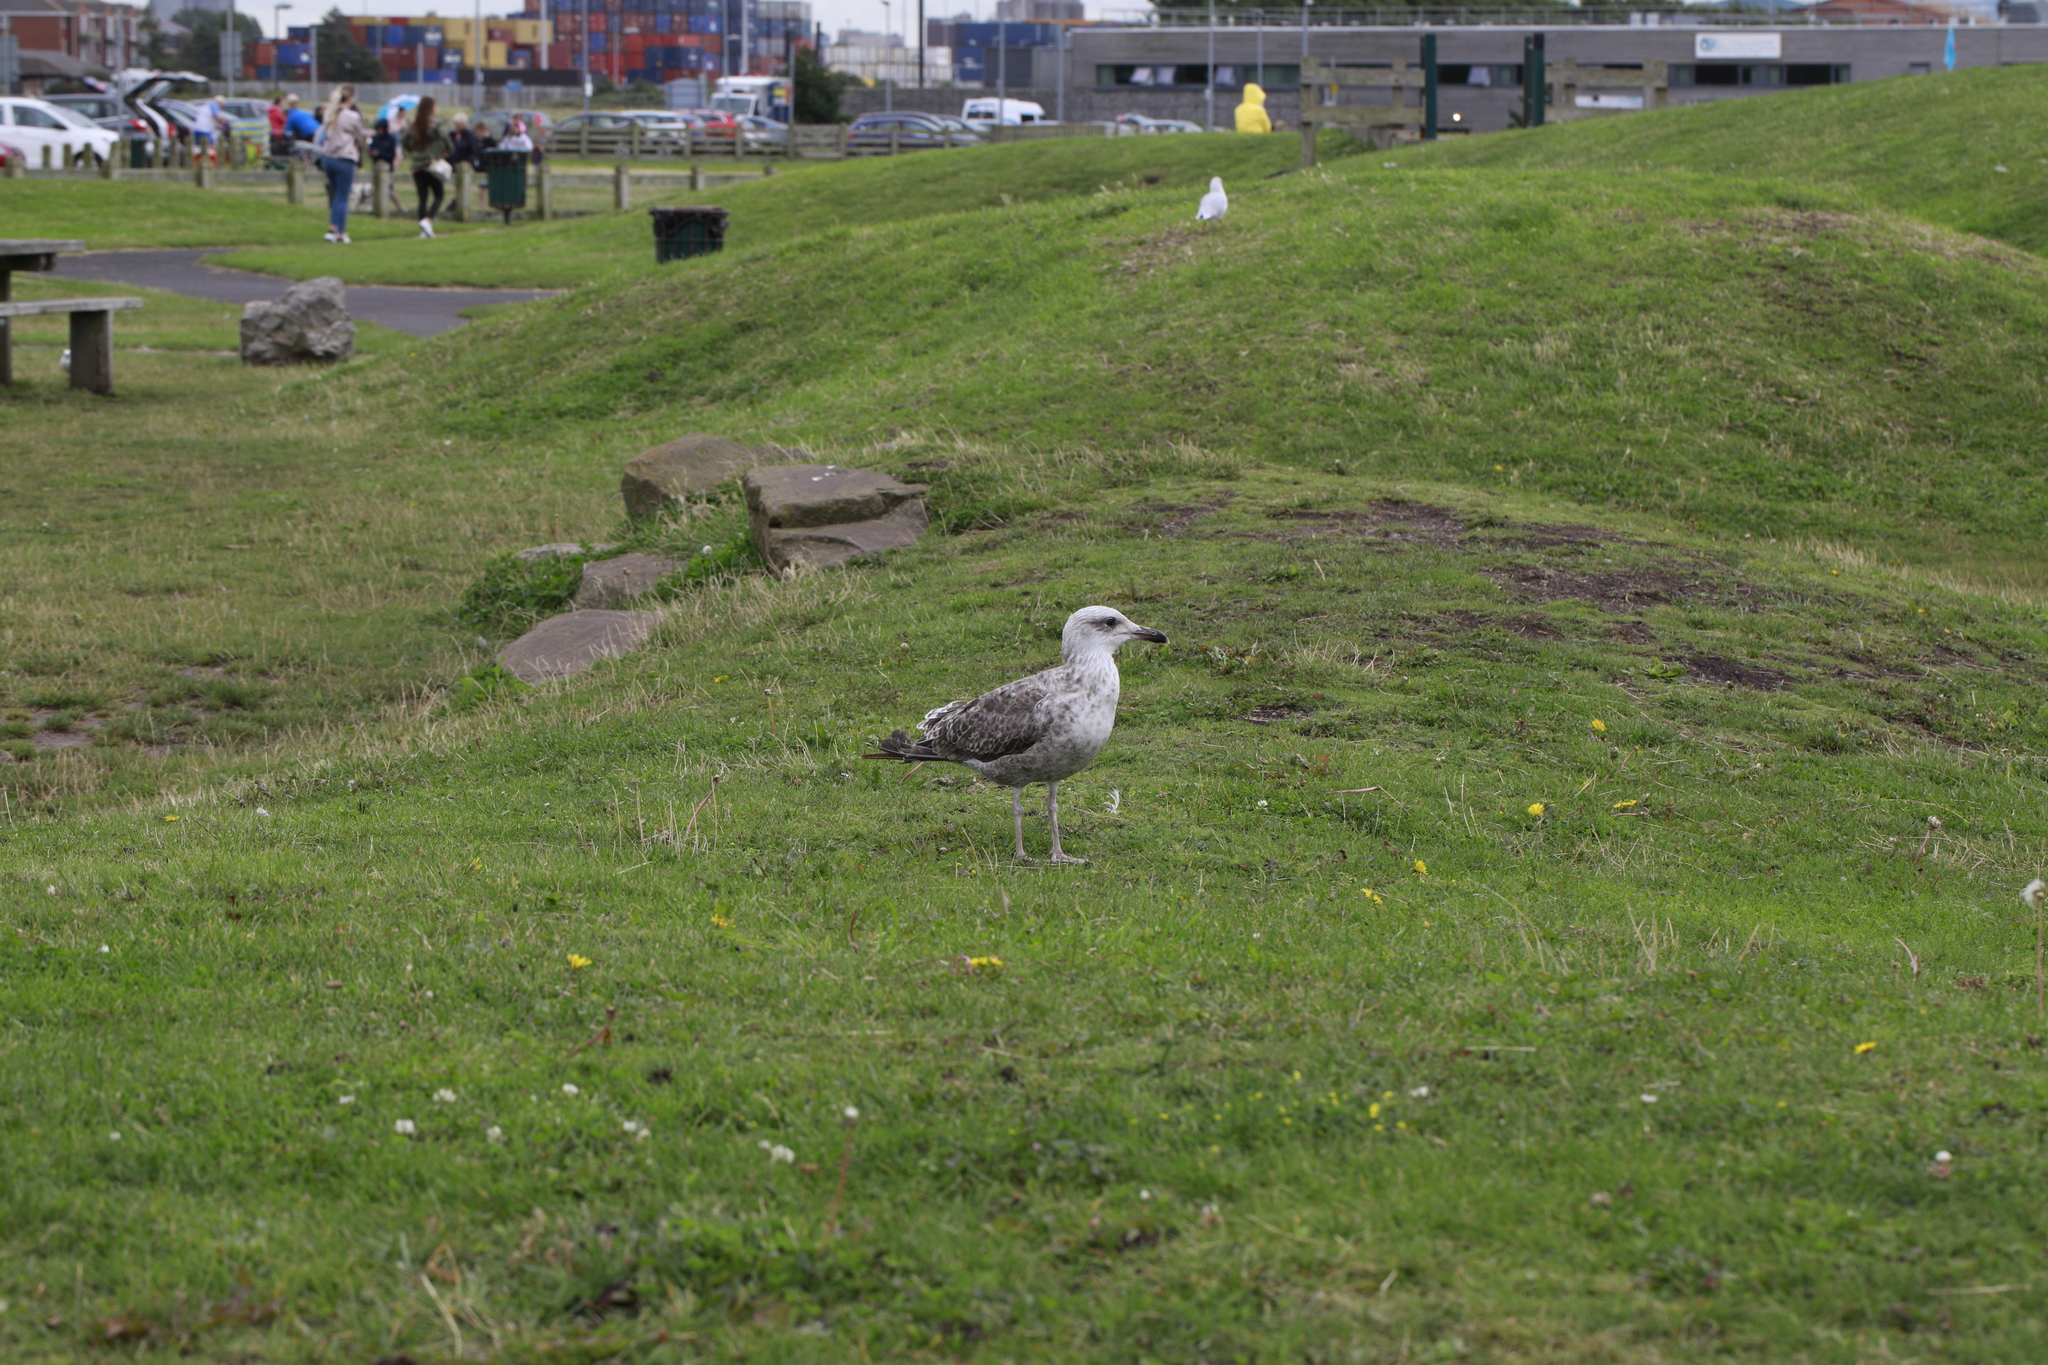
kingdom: Animalia
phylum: Chordata
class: Aves
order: Charadriiformes
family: Laridae
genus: Larus
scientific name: Larus argentatus
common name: Herring gull
